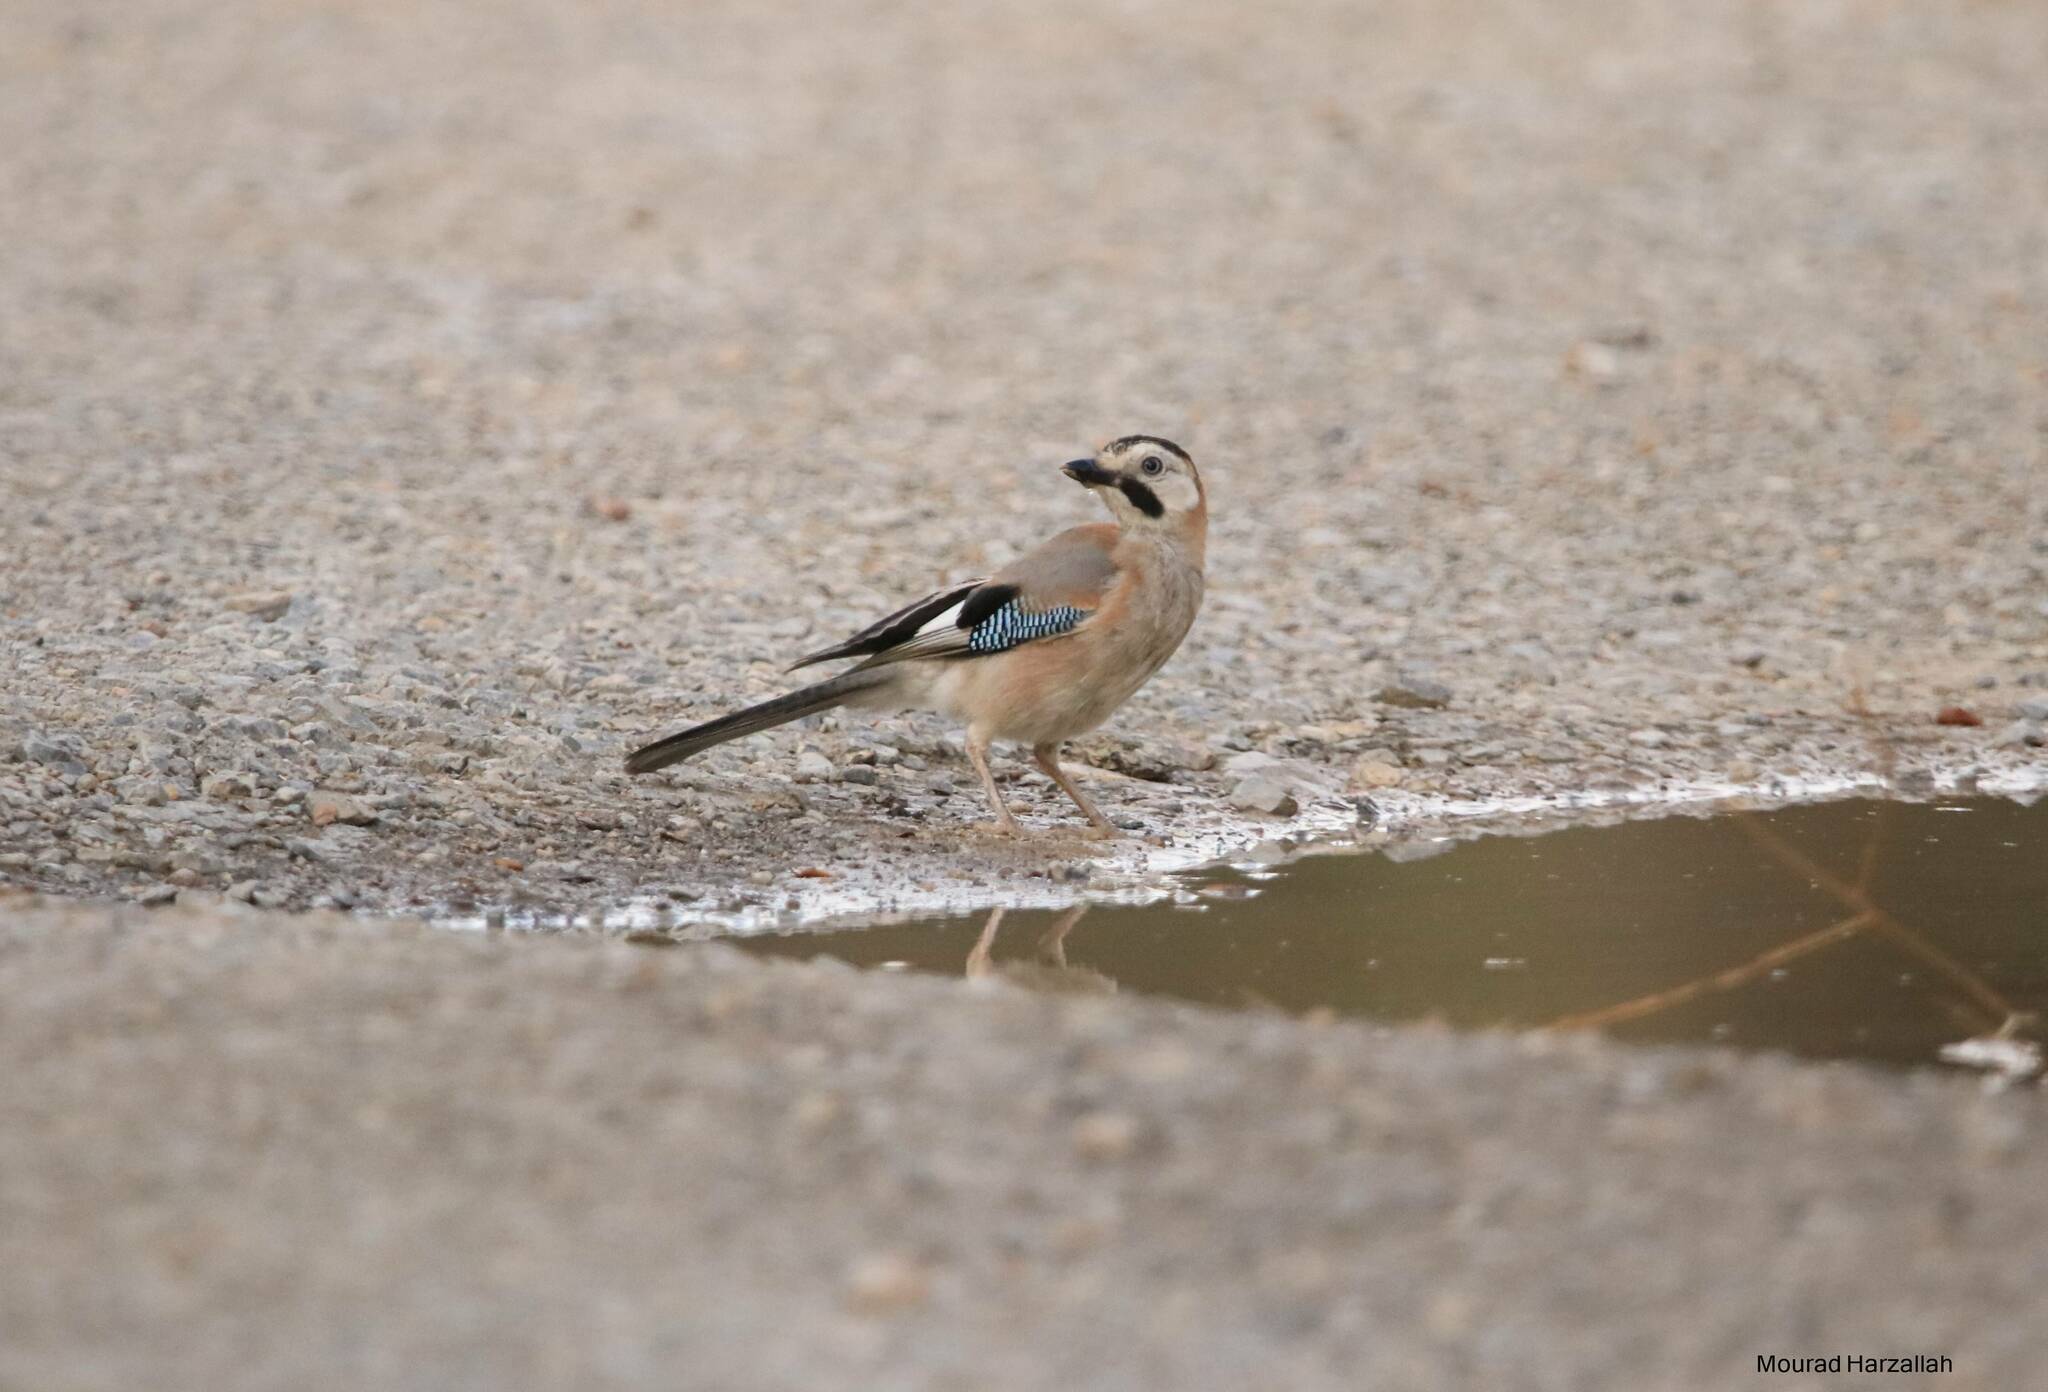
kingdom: Animalia
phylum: Chordata
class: Aves
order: Passeriformes
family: Corvidae
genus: Garrulus
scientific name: Garrulus glandarius
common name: Eurasian jay
